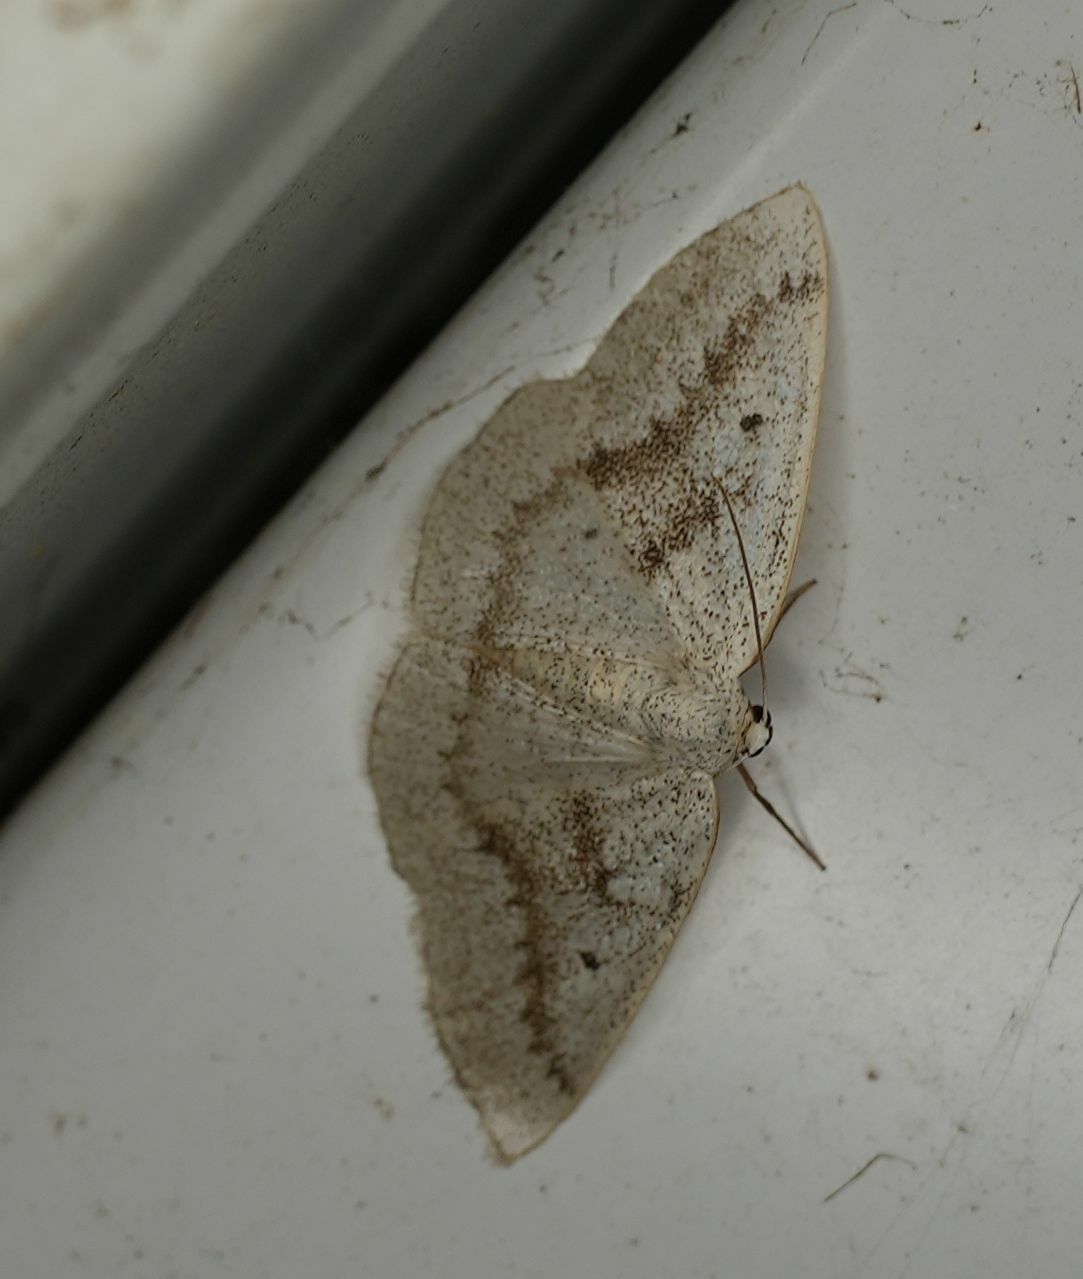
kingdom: Animalia
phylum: Arthropoda
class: Insecta
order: Lepidoptera
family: Geometridae
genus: Lomographa
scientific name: Lomographa glomeraria
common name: Gray spring moth
